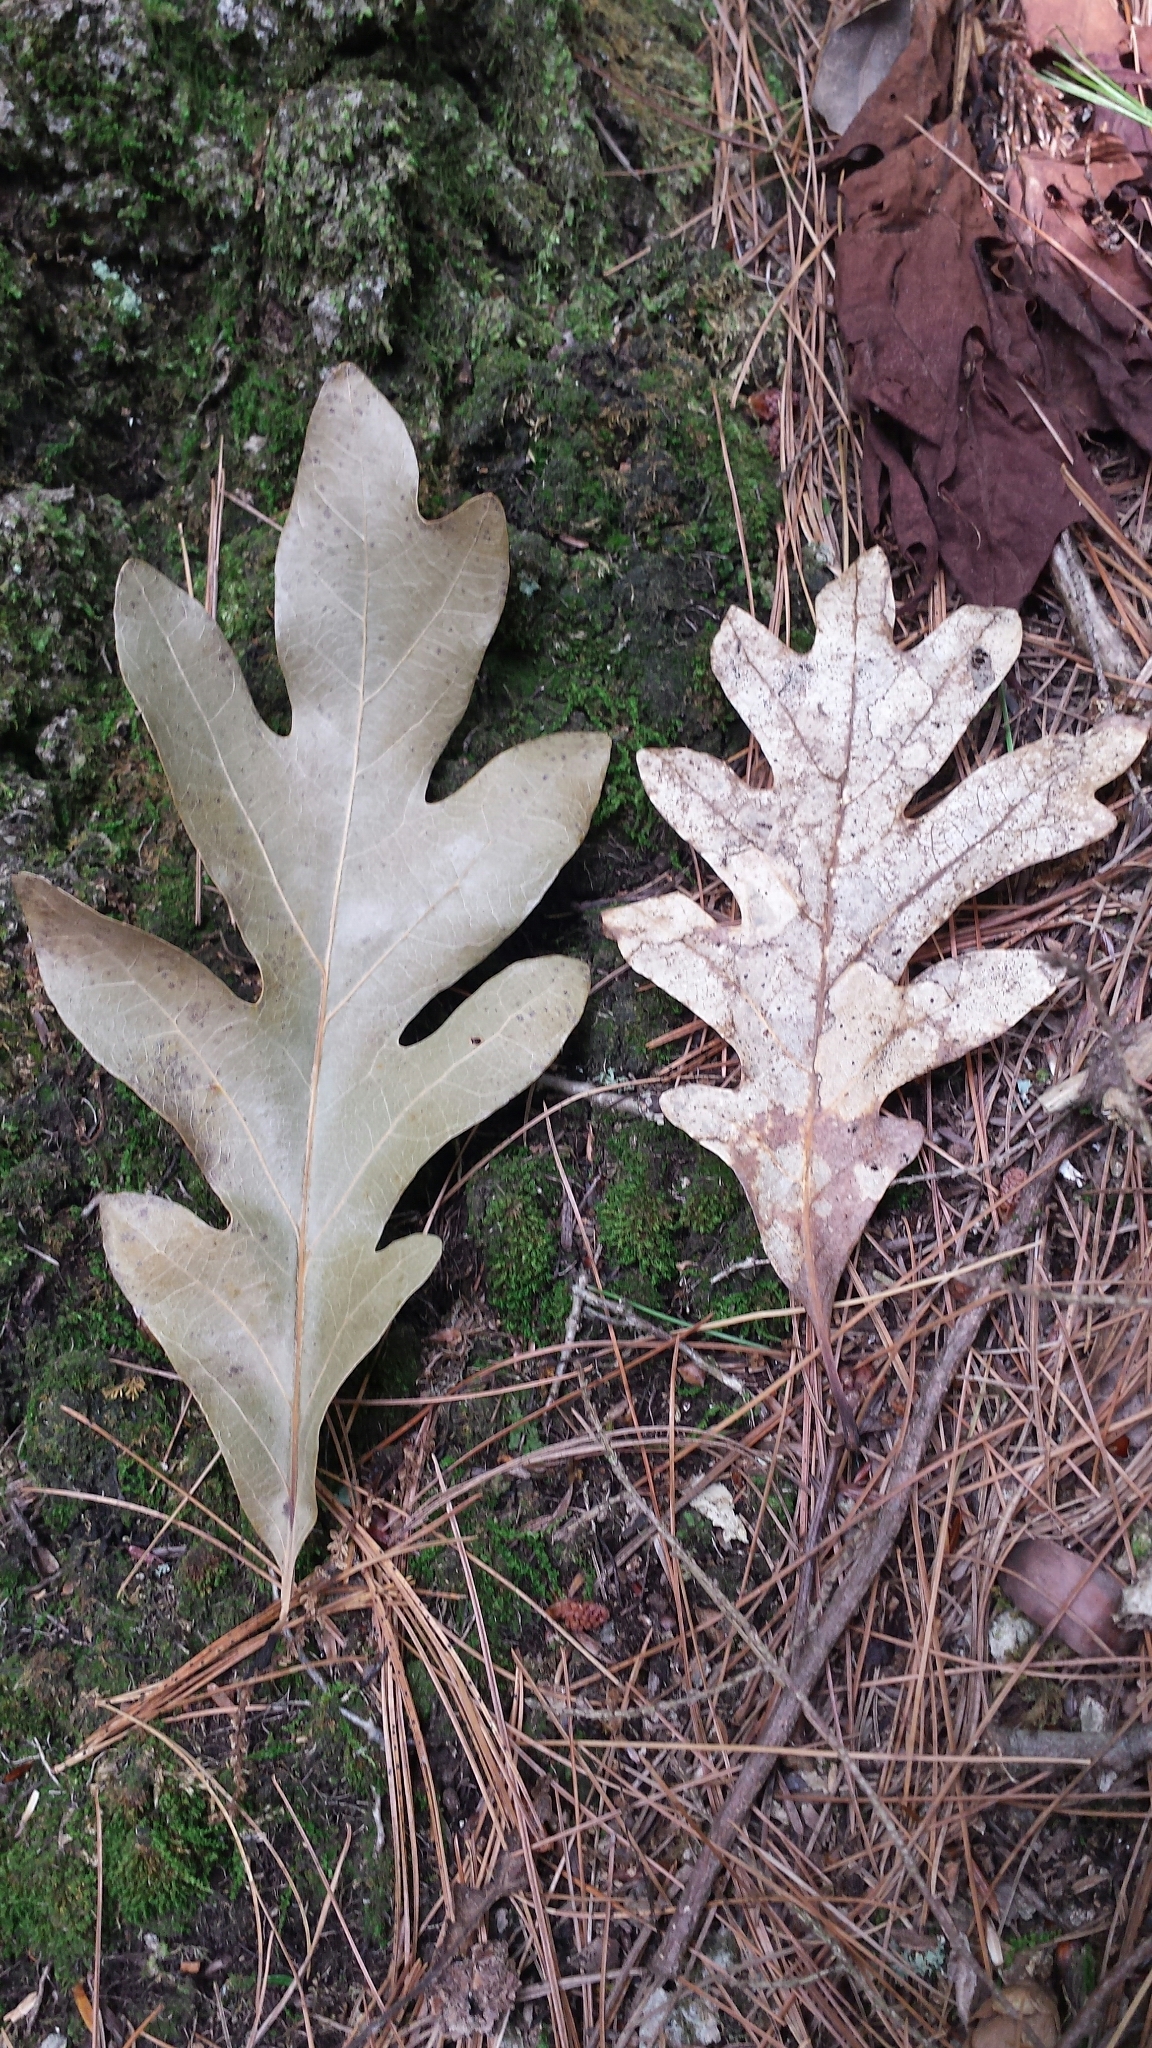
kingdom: Plantae
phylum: Tracheophyta
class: Magnoliopsida
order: Fagales
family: Fagaceae
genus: Quercus
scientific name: Quercus alba
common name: White oak
